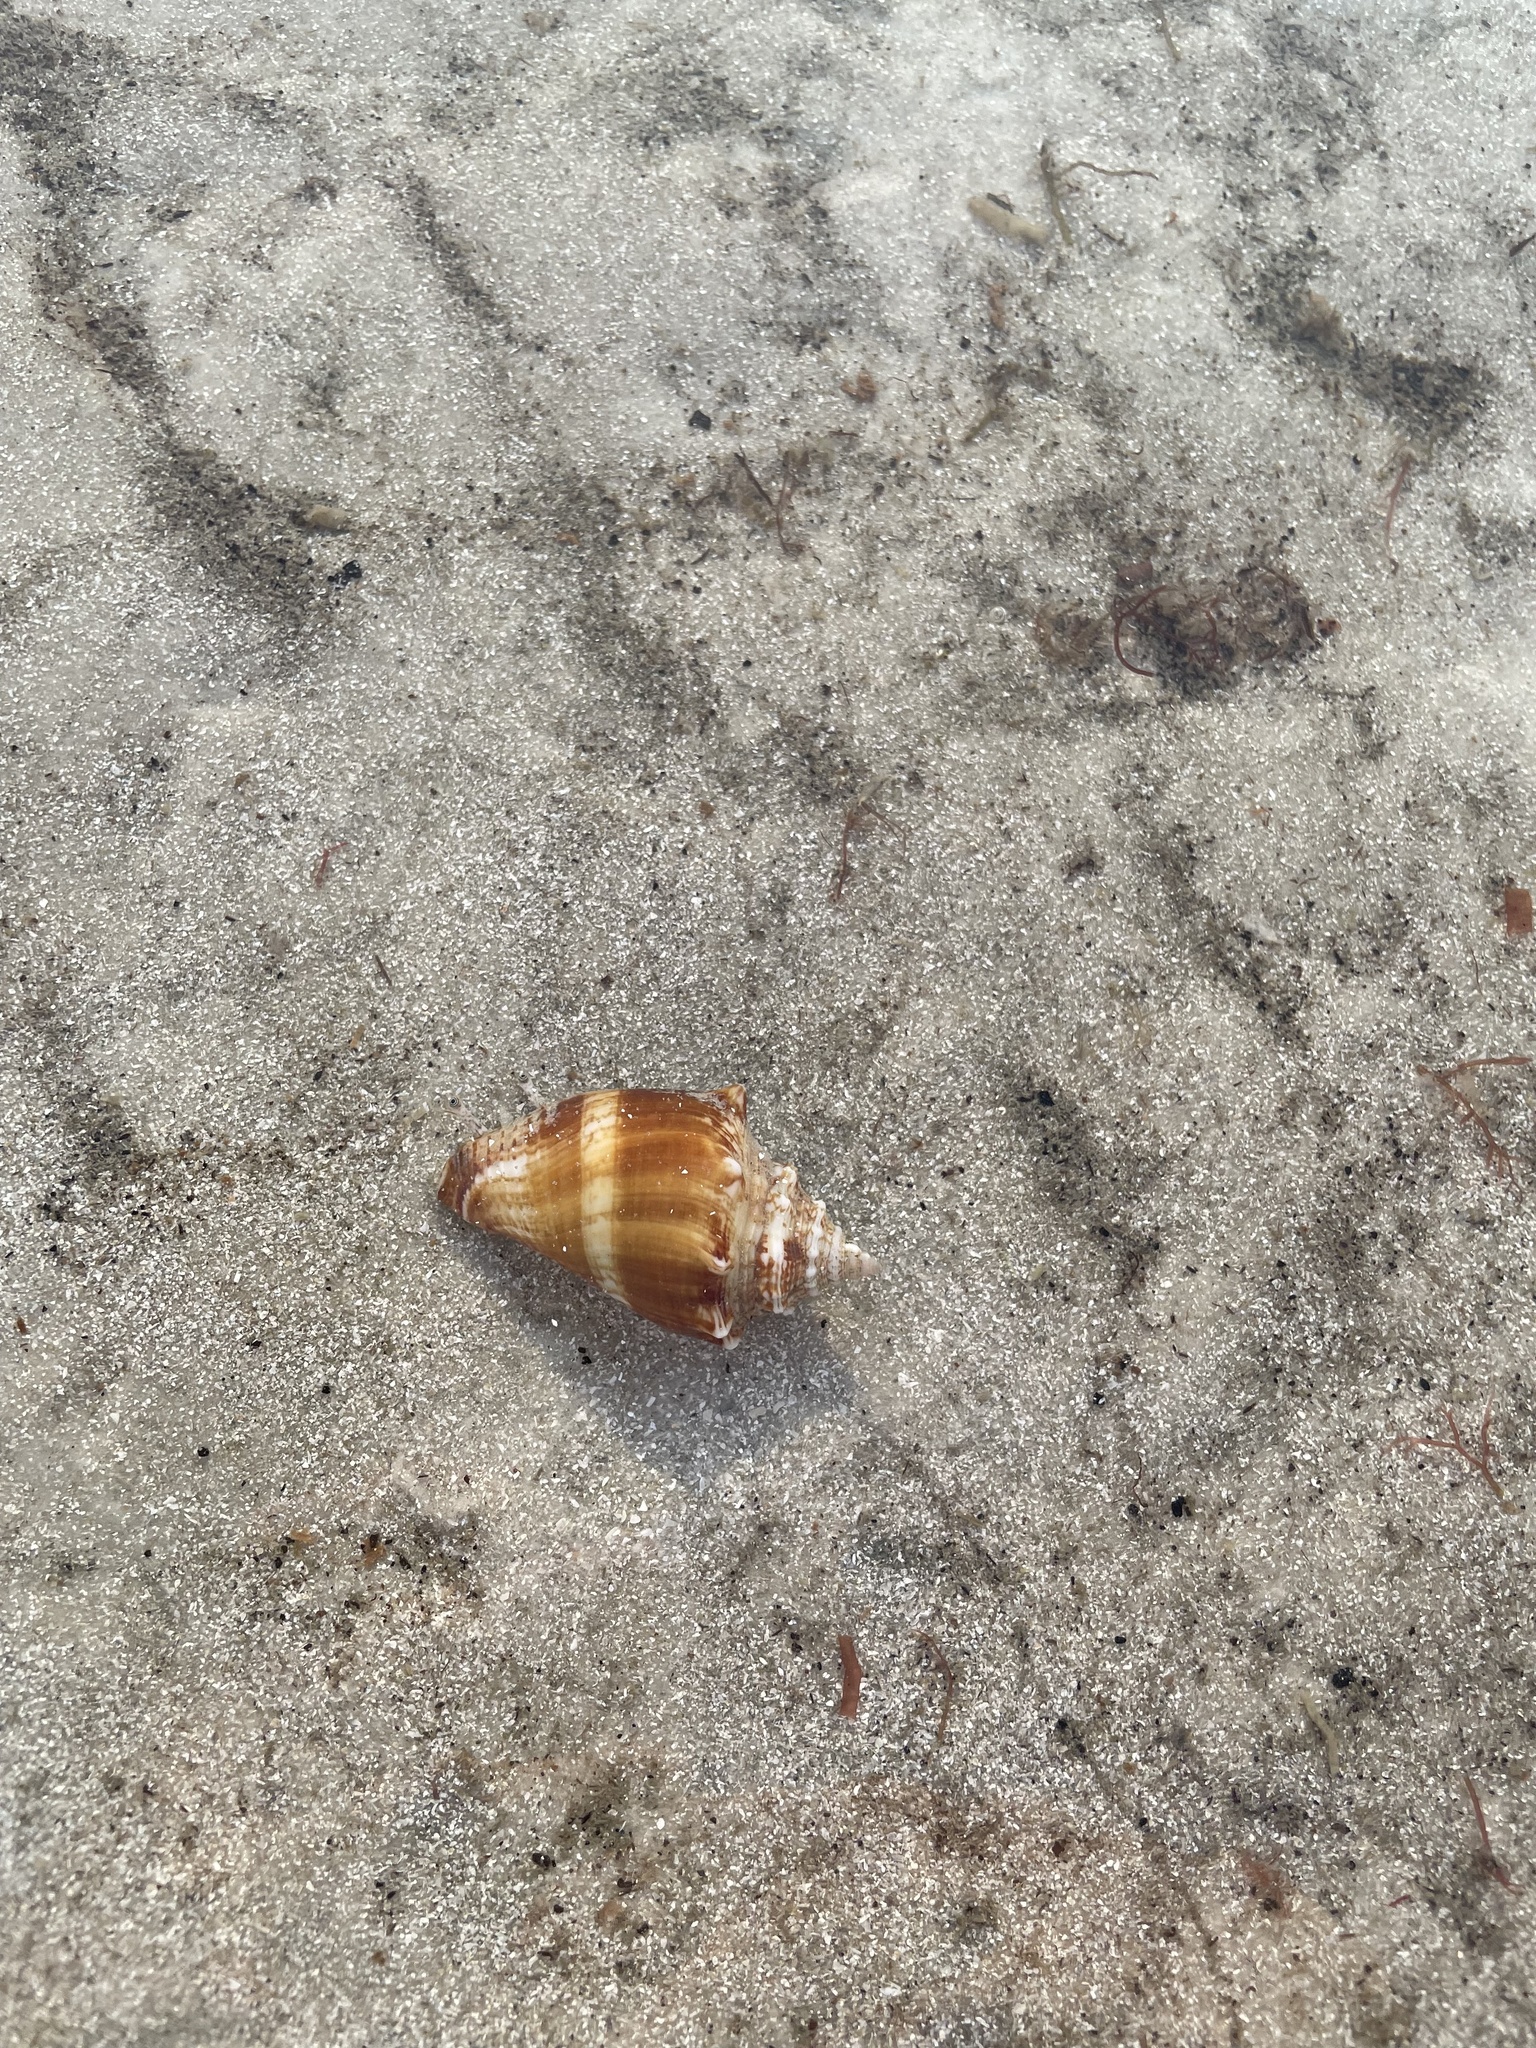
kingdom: Animalia
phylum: Mollusca
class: Gastropoda
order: Littorinimorpha
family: Strombidae
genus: Strombus
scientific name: Strombus alatus
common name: Florida fighting conch
